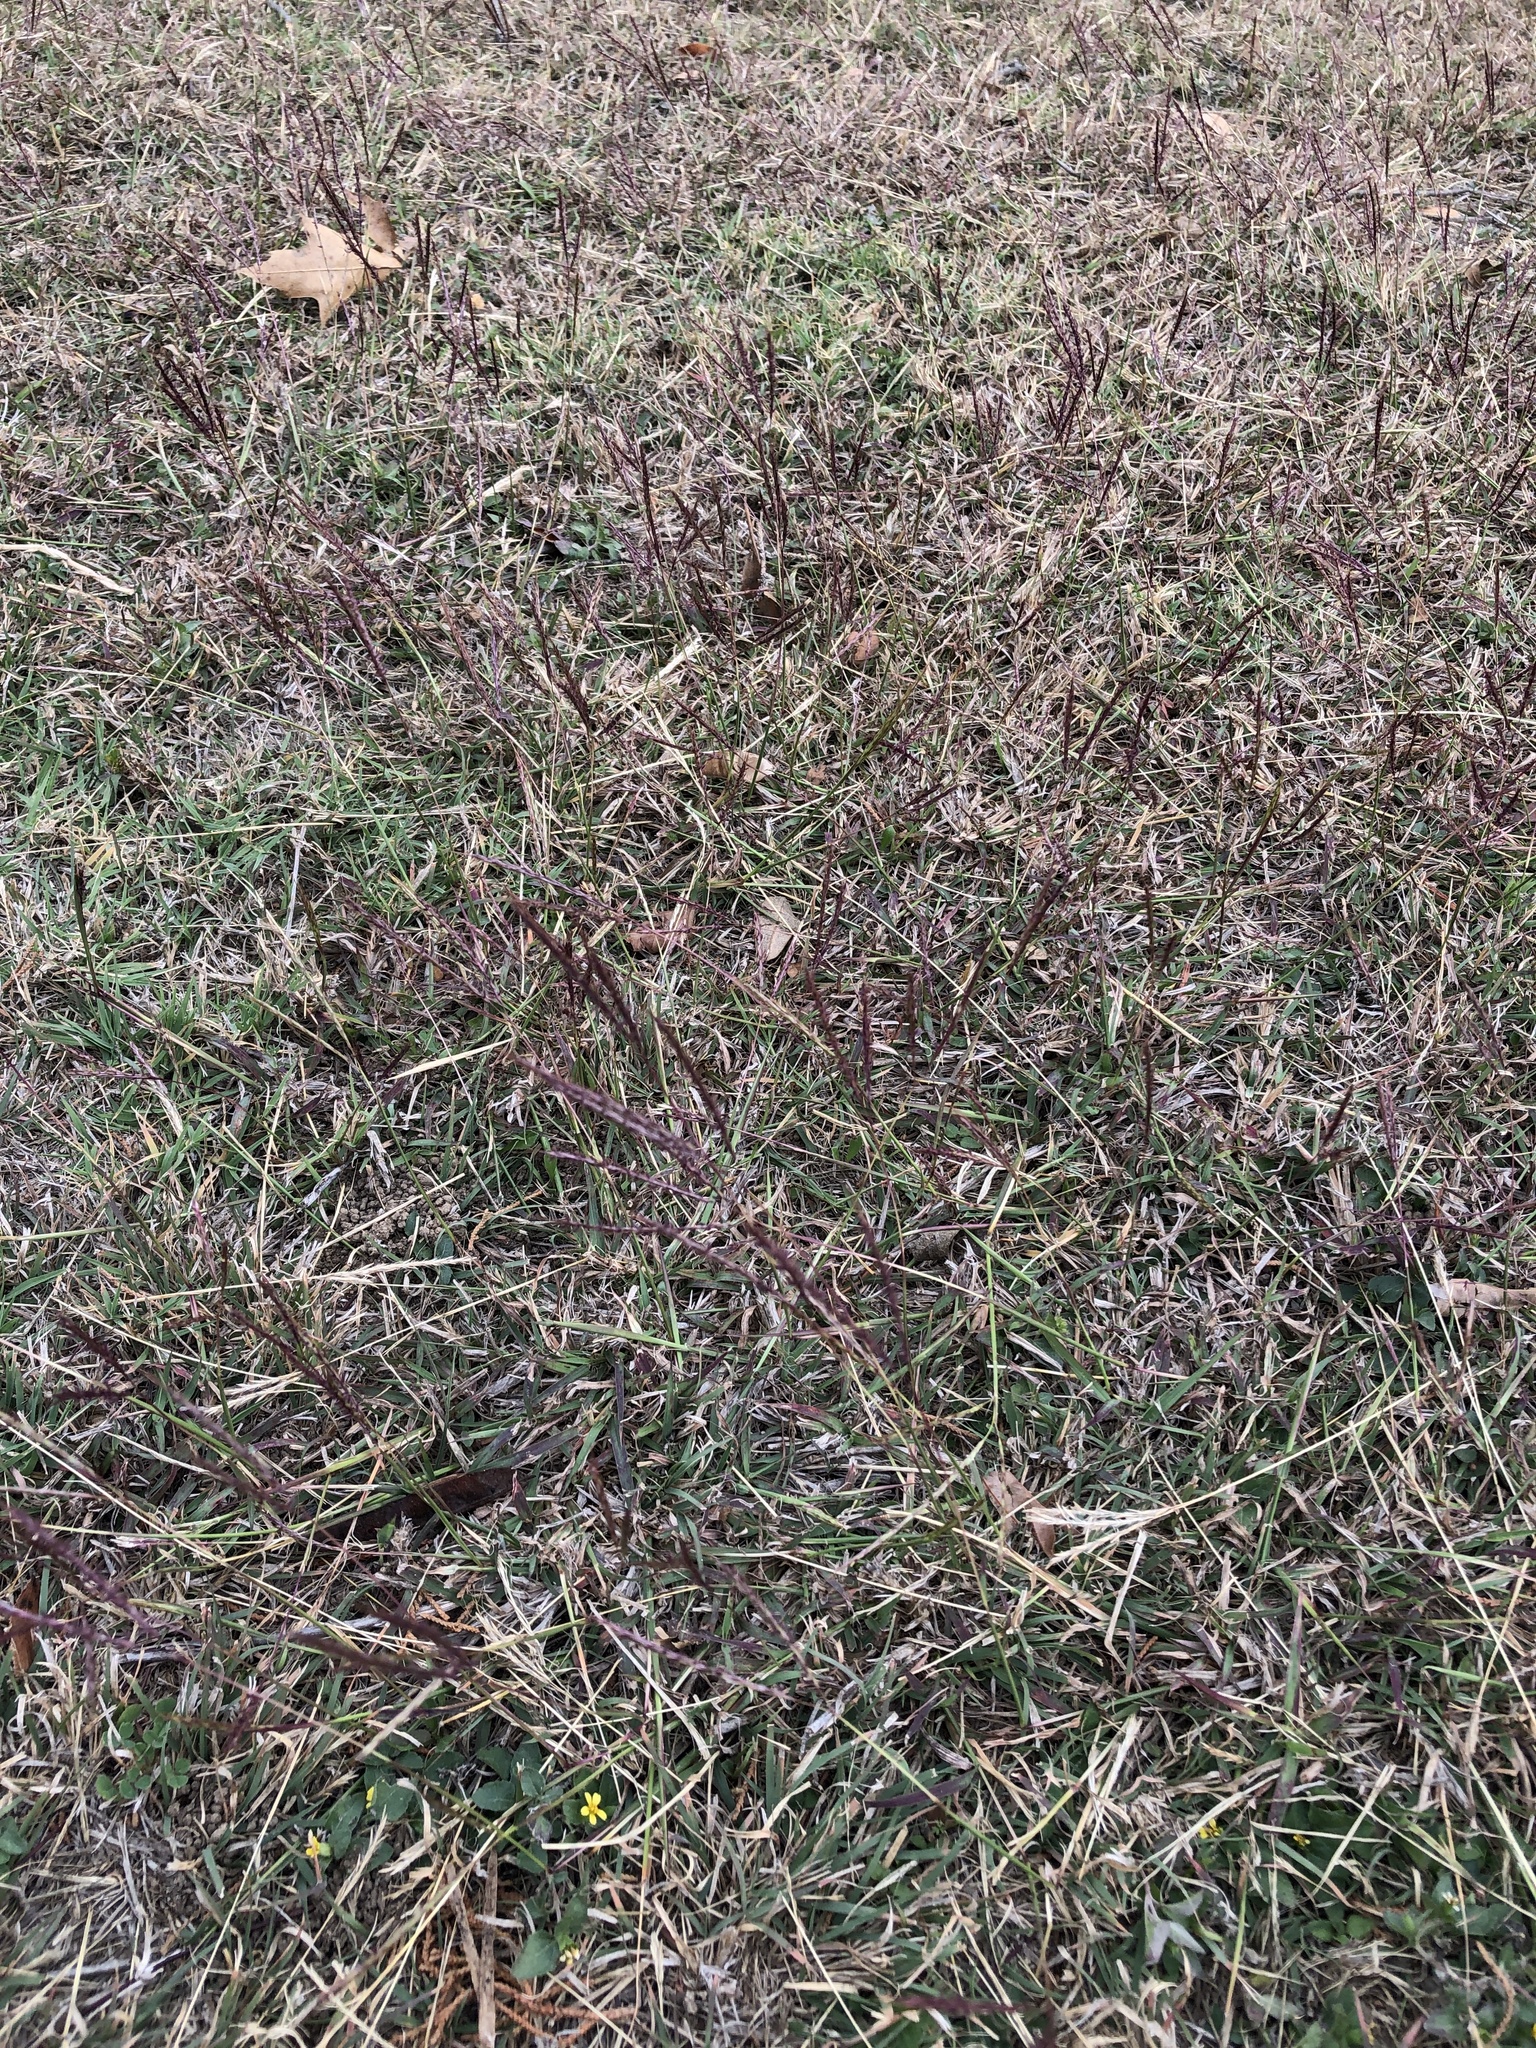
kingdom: Plantae
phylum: Tracheophyta
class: Liliopsida
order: Poales
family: Poaceae
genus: Bothriochloa
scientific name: Bothriochloa ischaemum
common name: Yellow bluestem
